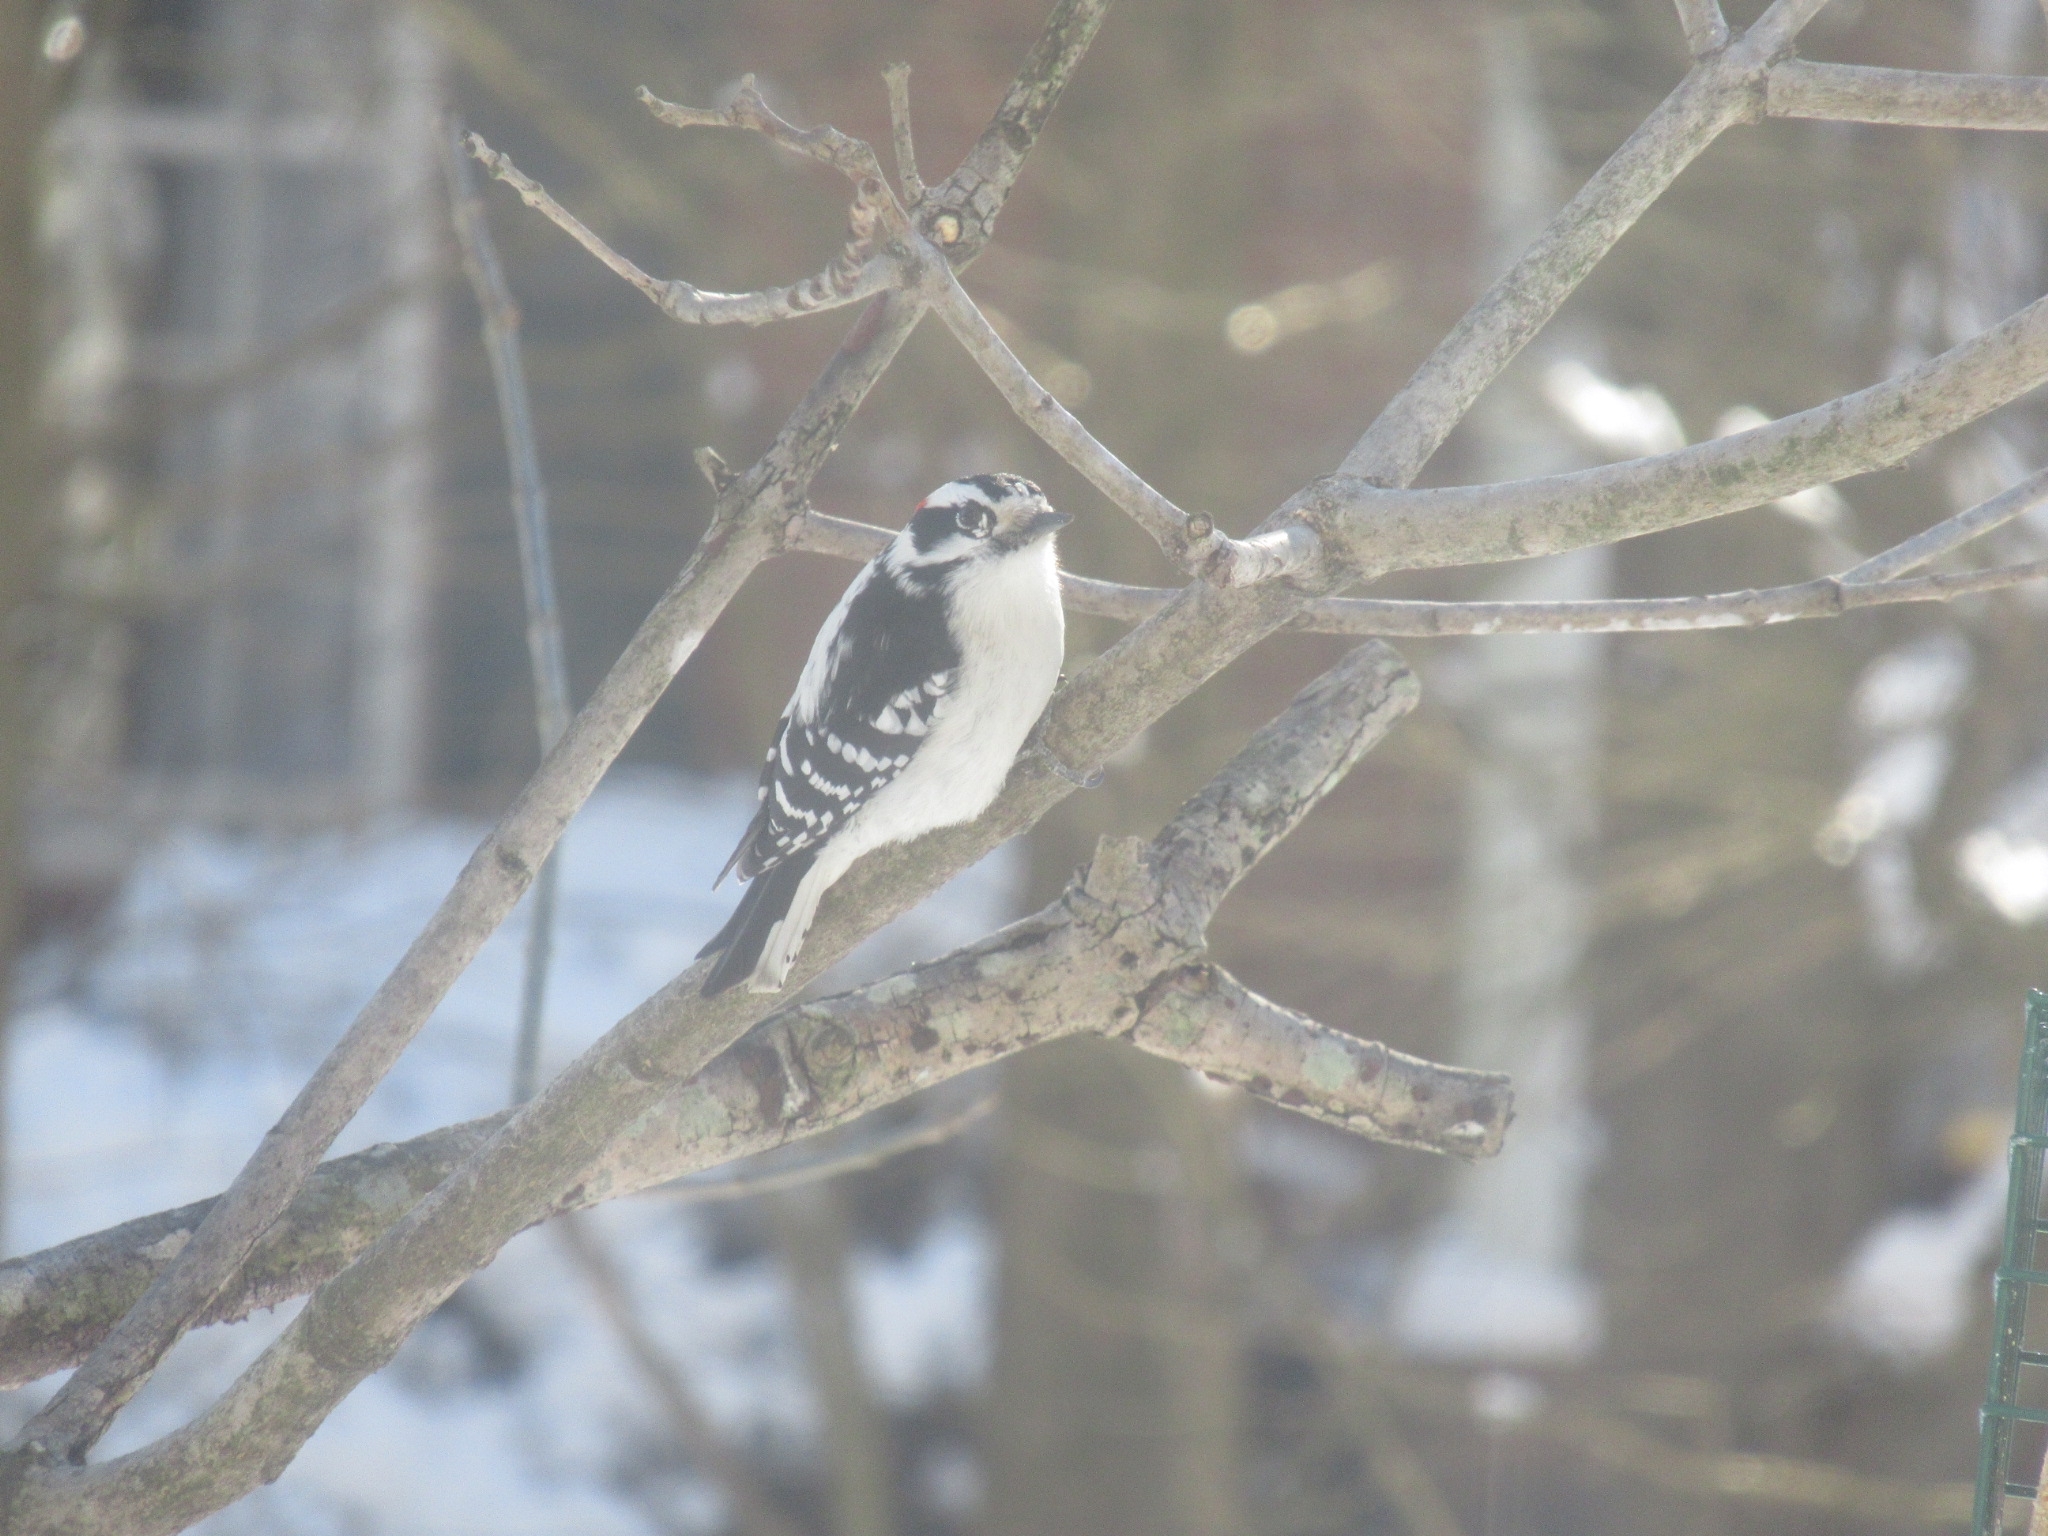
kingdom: Animalia
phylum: Chordata
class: Aves
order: Piciformes
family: Picidae
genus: Dryobates
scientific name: Dryobates pubescens
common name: Downy woodpecker
